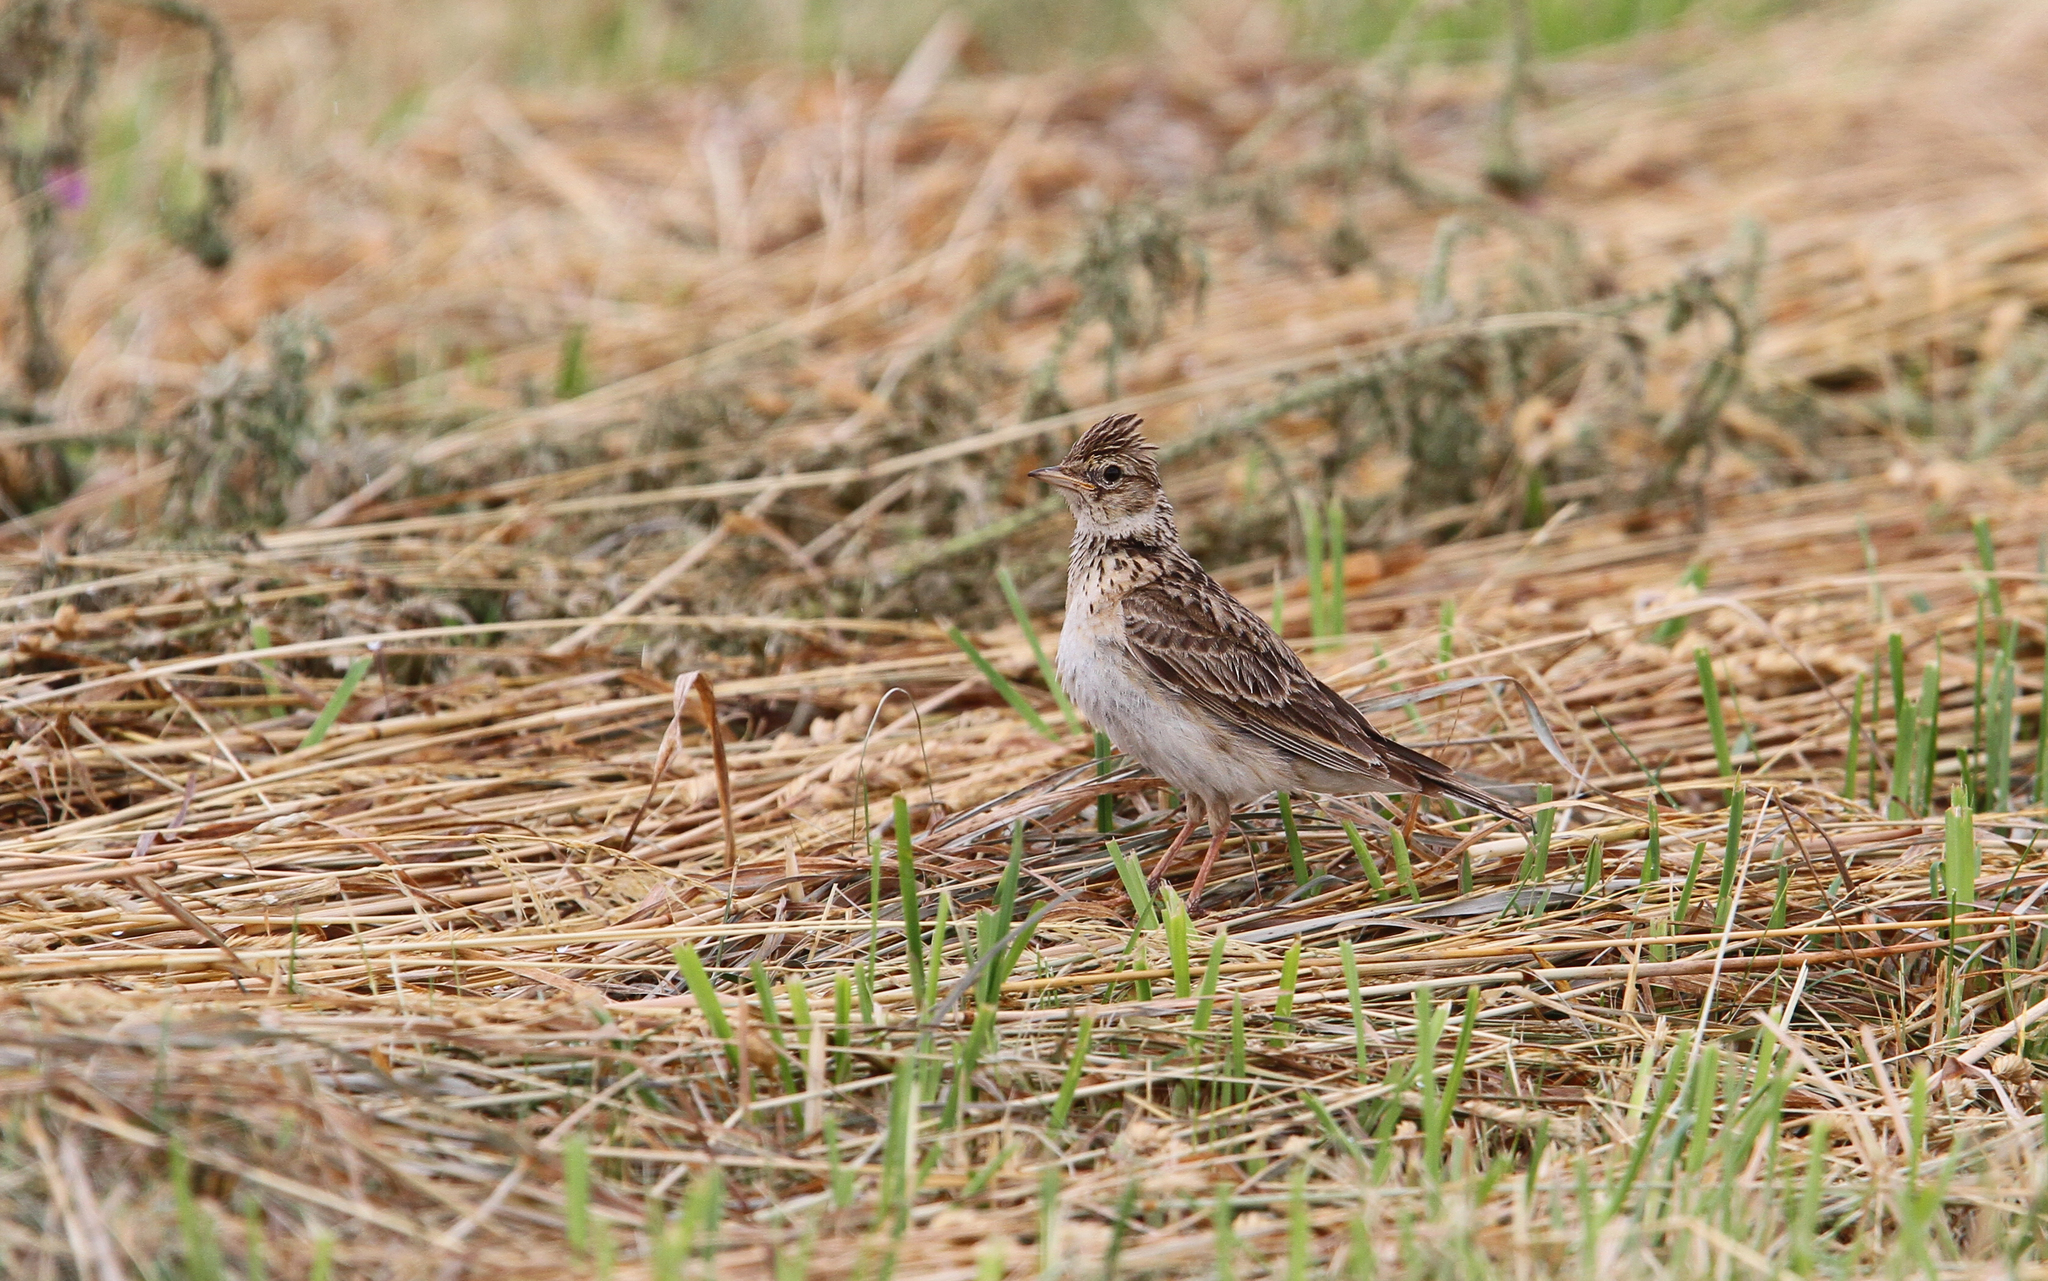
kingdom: Animalia
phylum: Chordata
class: Aves
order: Passeriformes
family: Alaudidae
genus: Alauda
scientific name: Alauda arvensis
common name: Eurasian skylark
